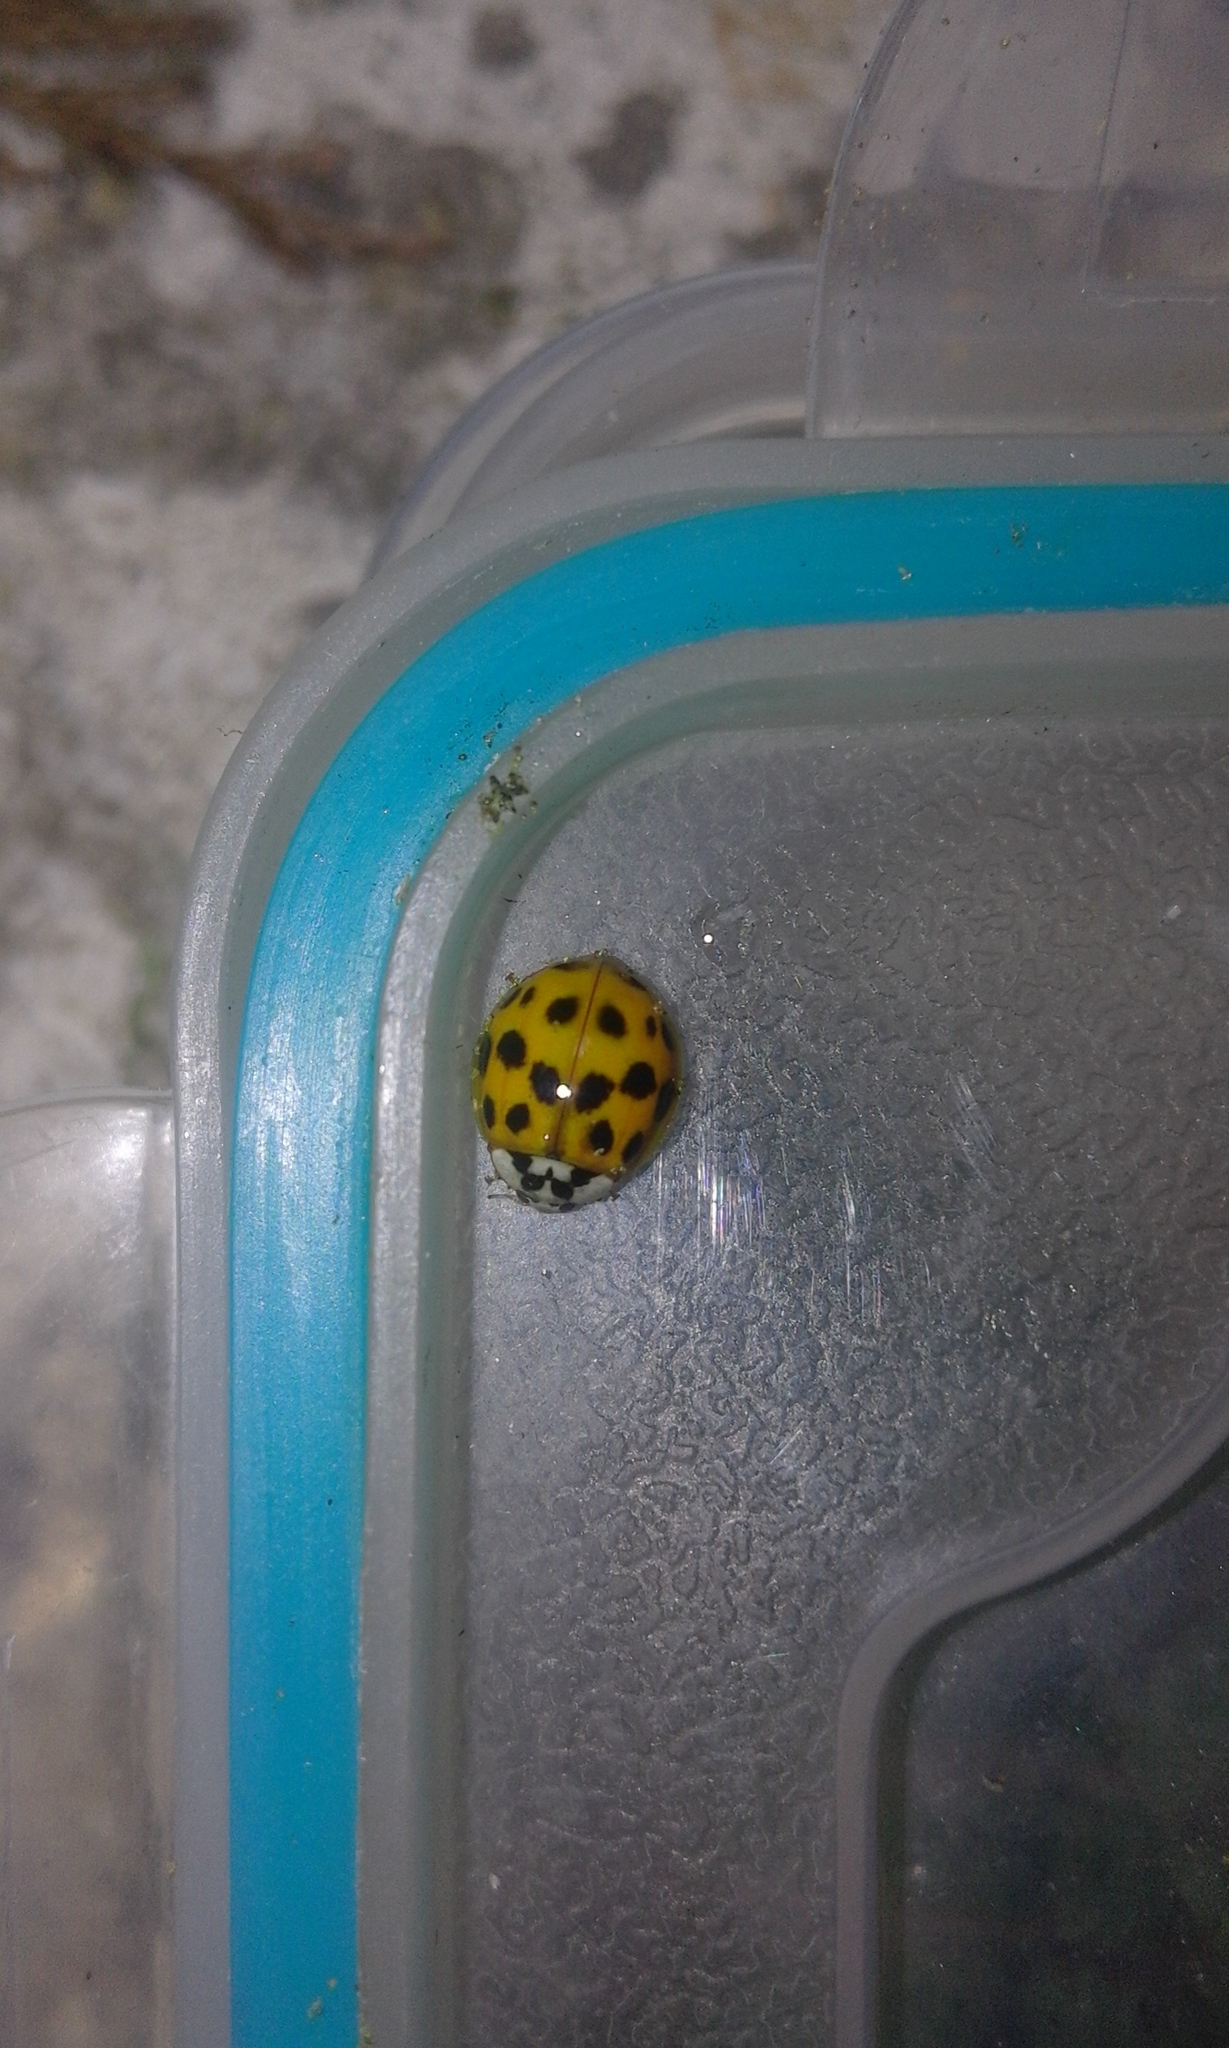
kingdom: Animalia
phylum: Arthropoda
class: Insecta
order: Coleoptera
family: Coccinellidae
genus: Harmonia
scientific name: Harmonia axyridis
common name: Harlequin ladybird
